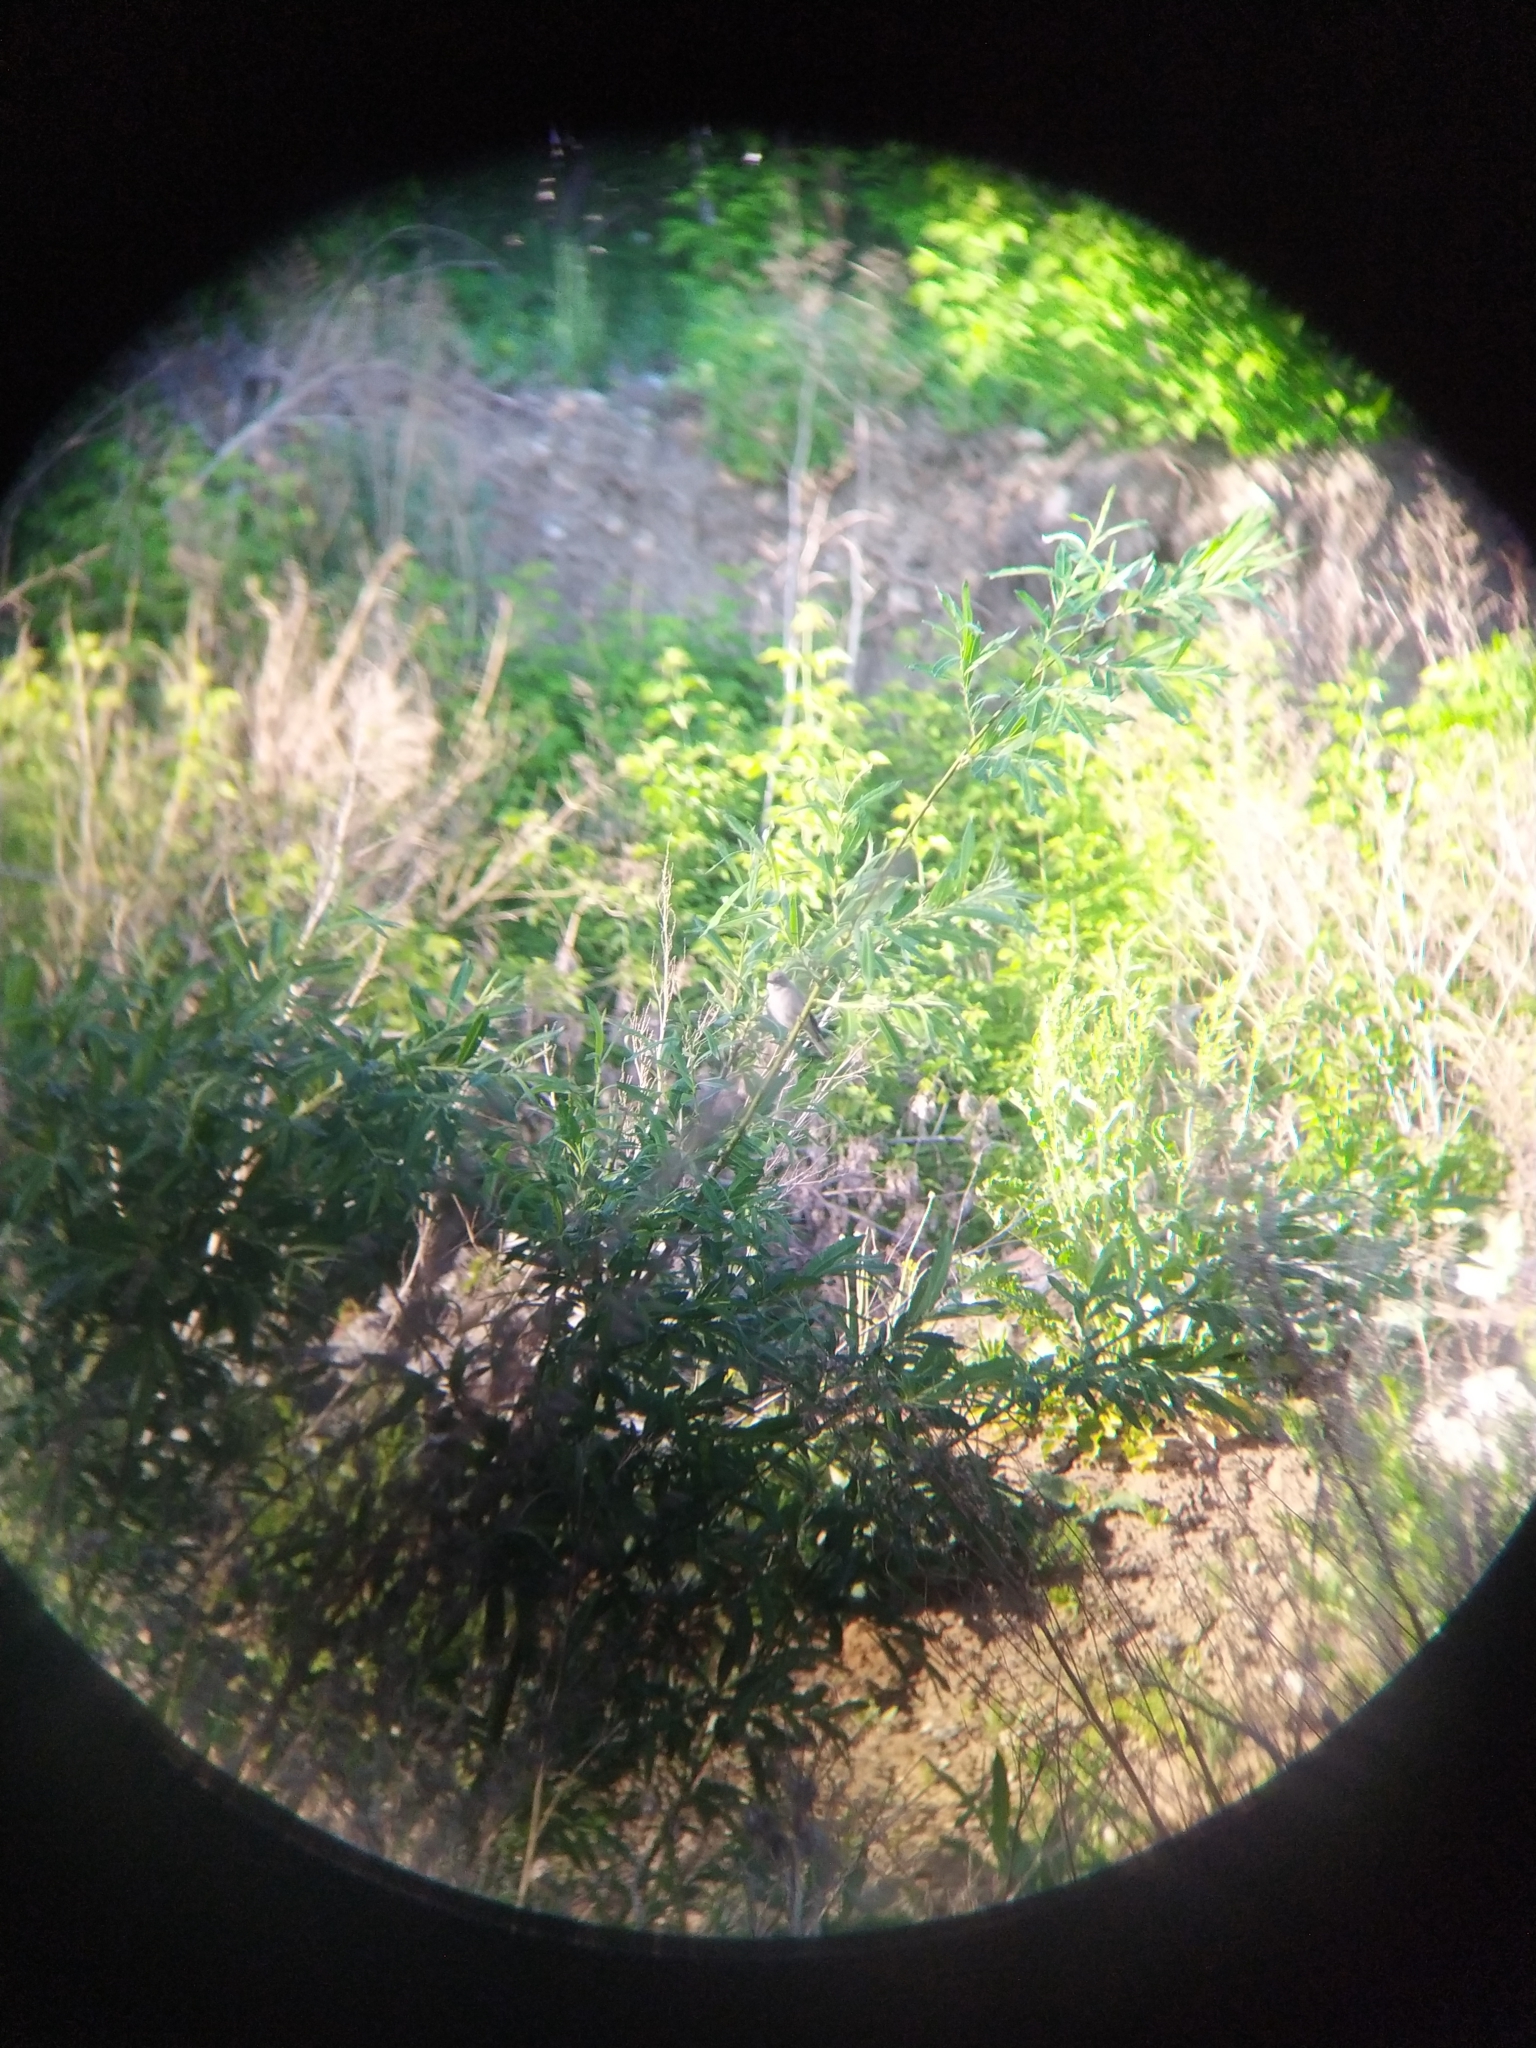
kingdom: Animalia
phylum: Chordata
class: Aves
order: Passeriformes
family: Sylviidae
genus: Sylvia
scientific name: Sylvia communis
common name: Common whitethroat
